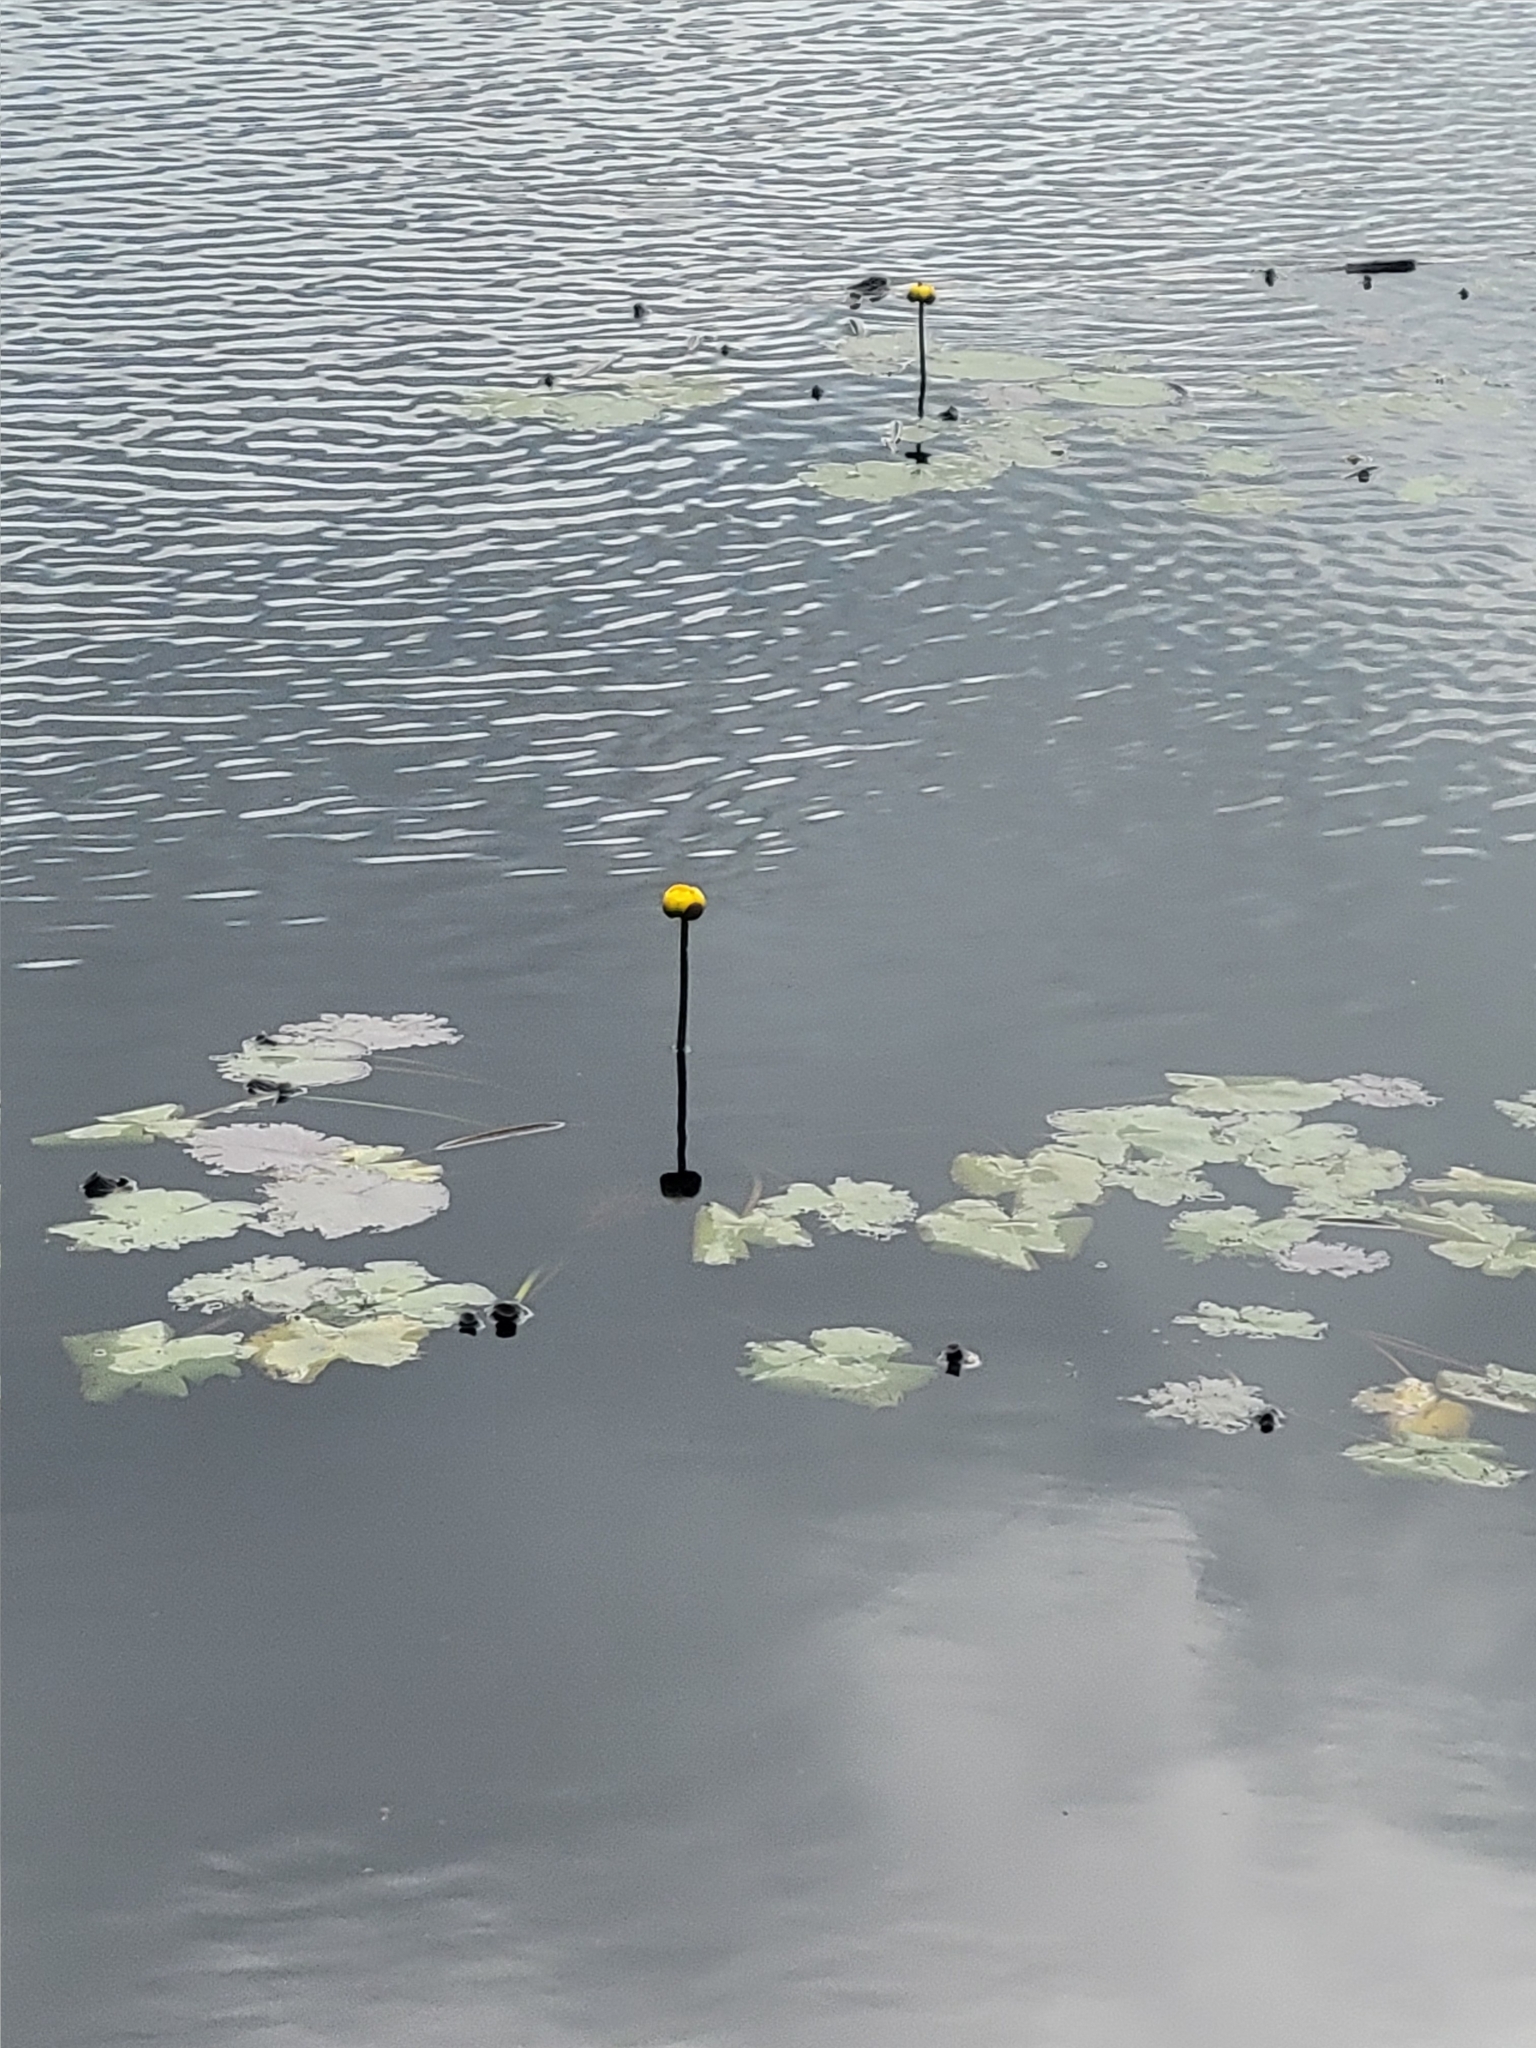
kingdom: Plantae
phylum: Tracheophyta
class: Magnoliopsida
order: Nymphaeales
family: Nymphaeaceae
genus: Nuphar
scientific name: Nuphar variegata
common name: Beaver-root
